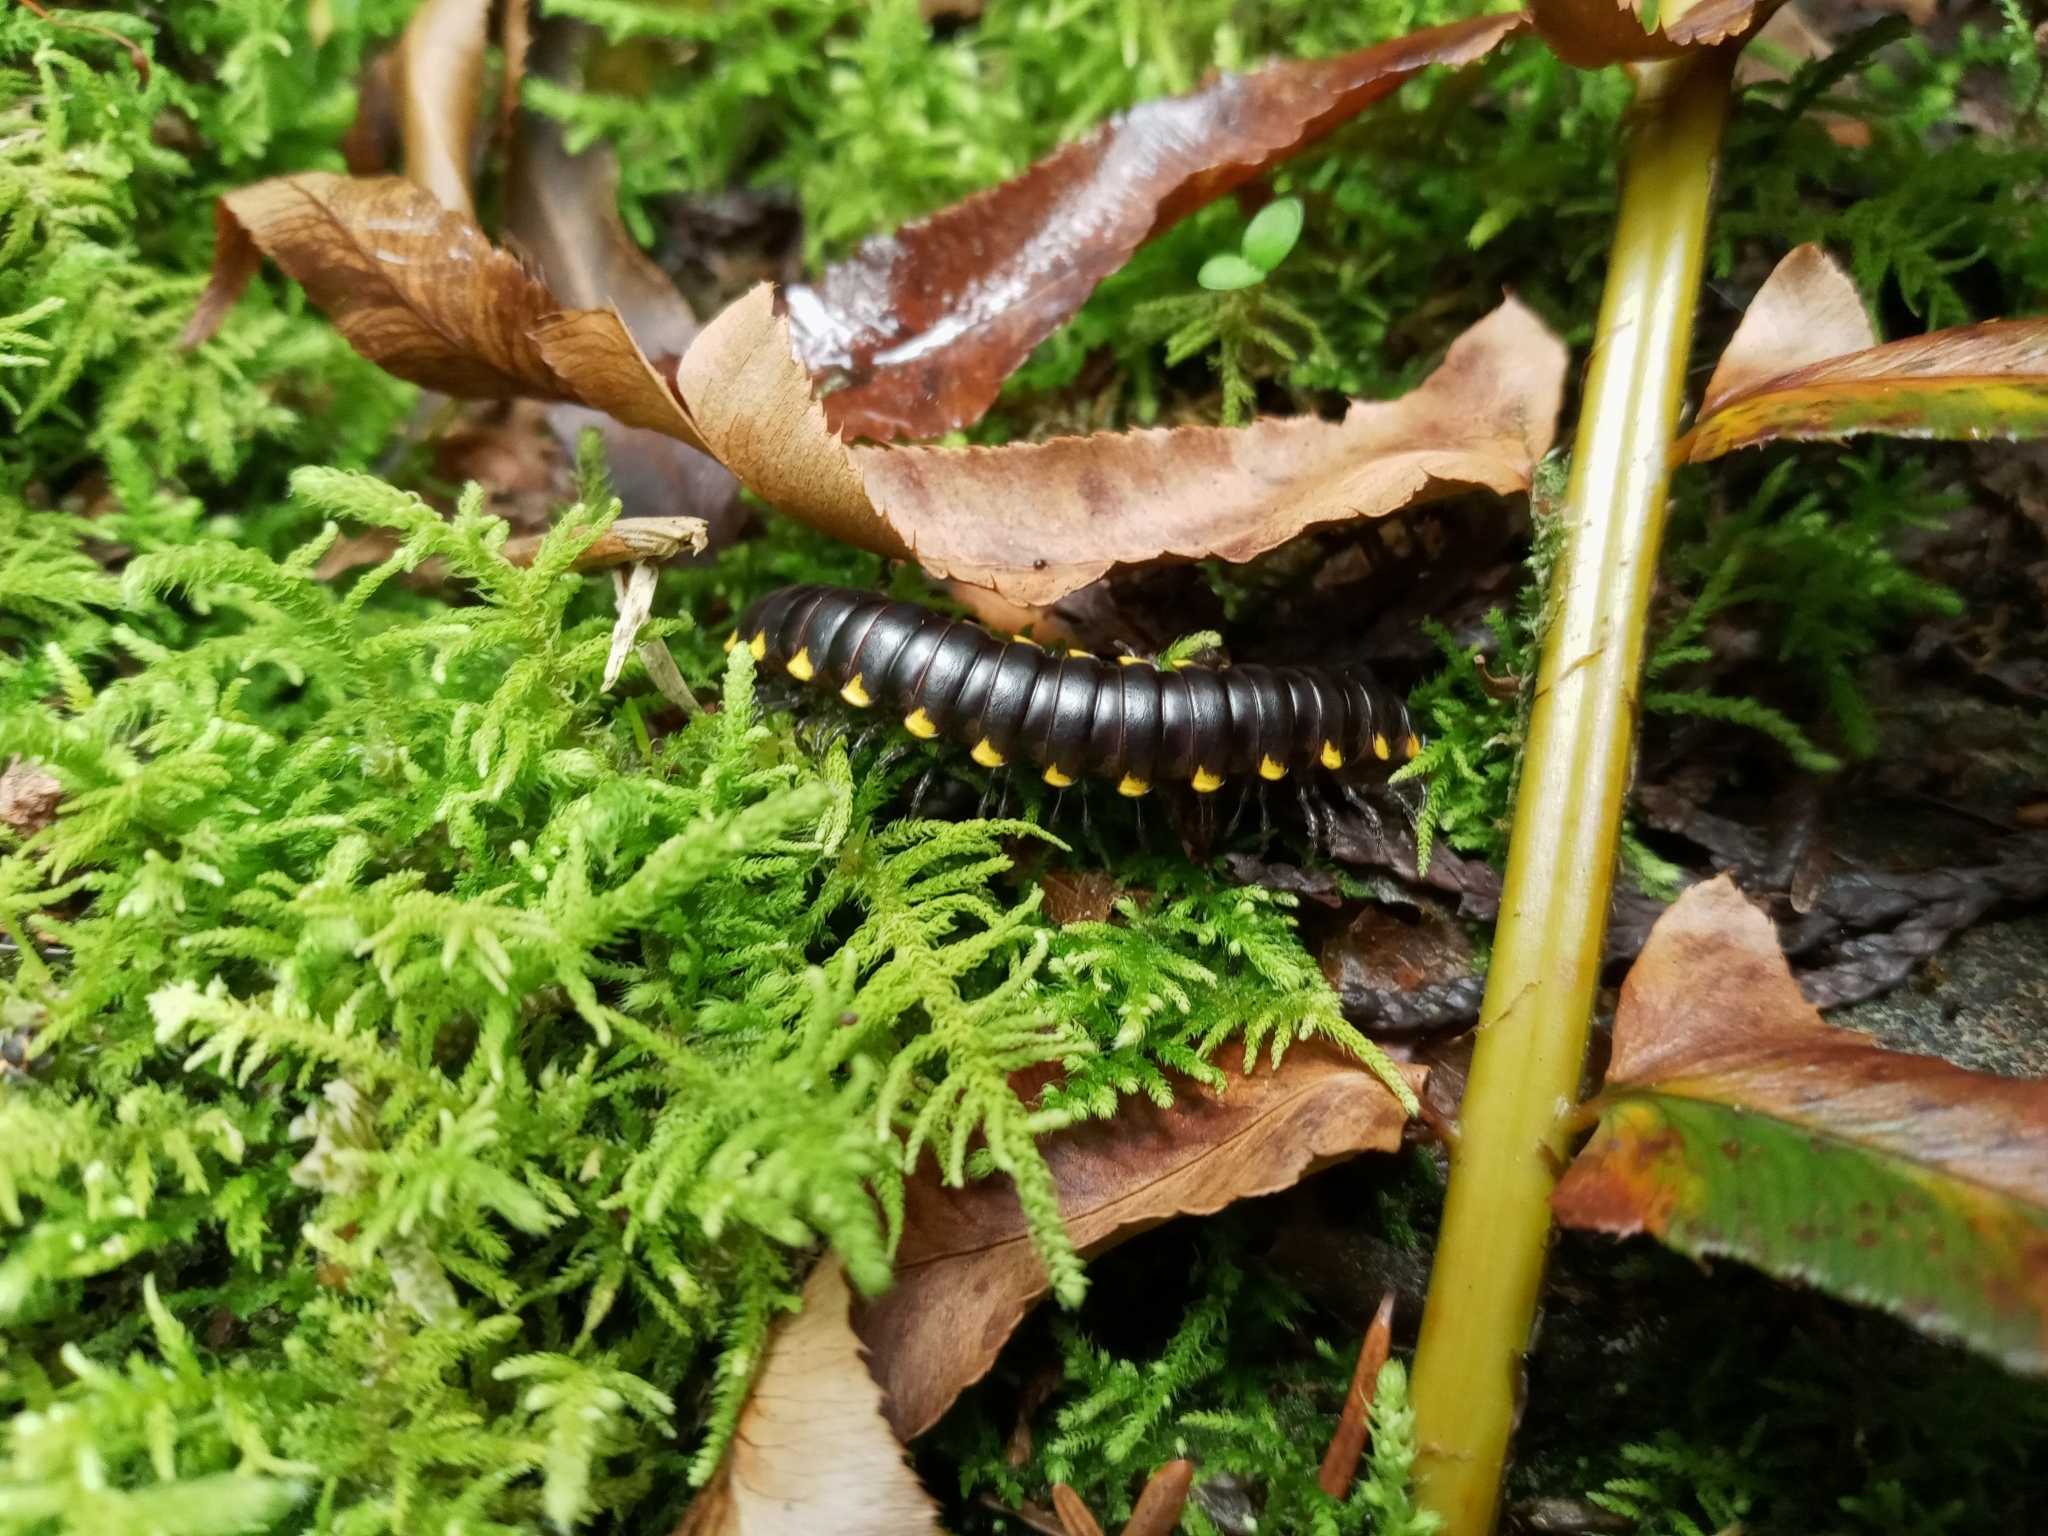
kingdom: Animalia
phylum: Arthropoda
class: Diplopoda
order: Polydesmida
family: Xystodesmidae
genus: Harpaphe
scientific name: Harpaphe haydeniana
